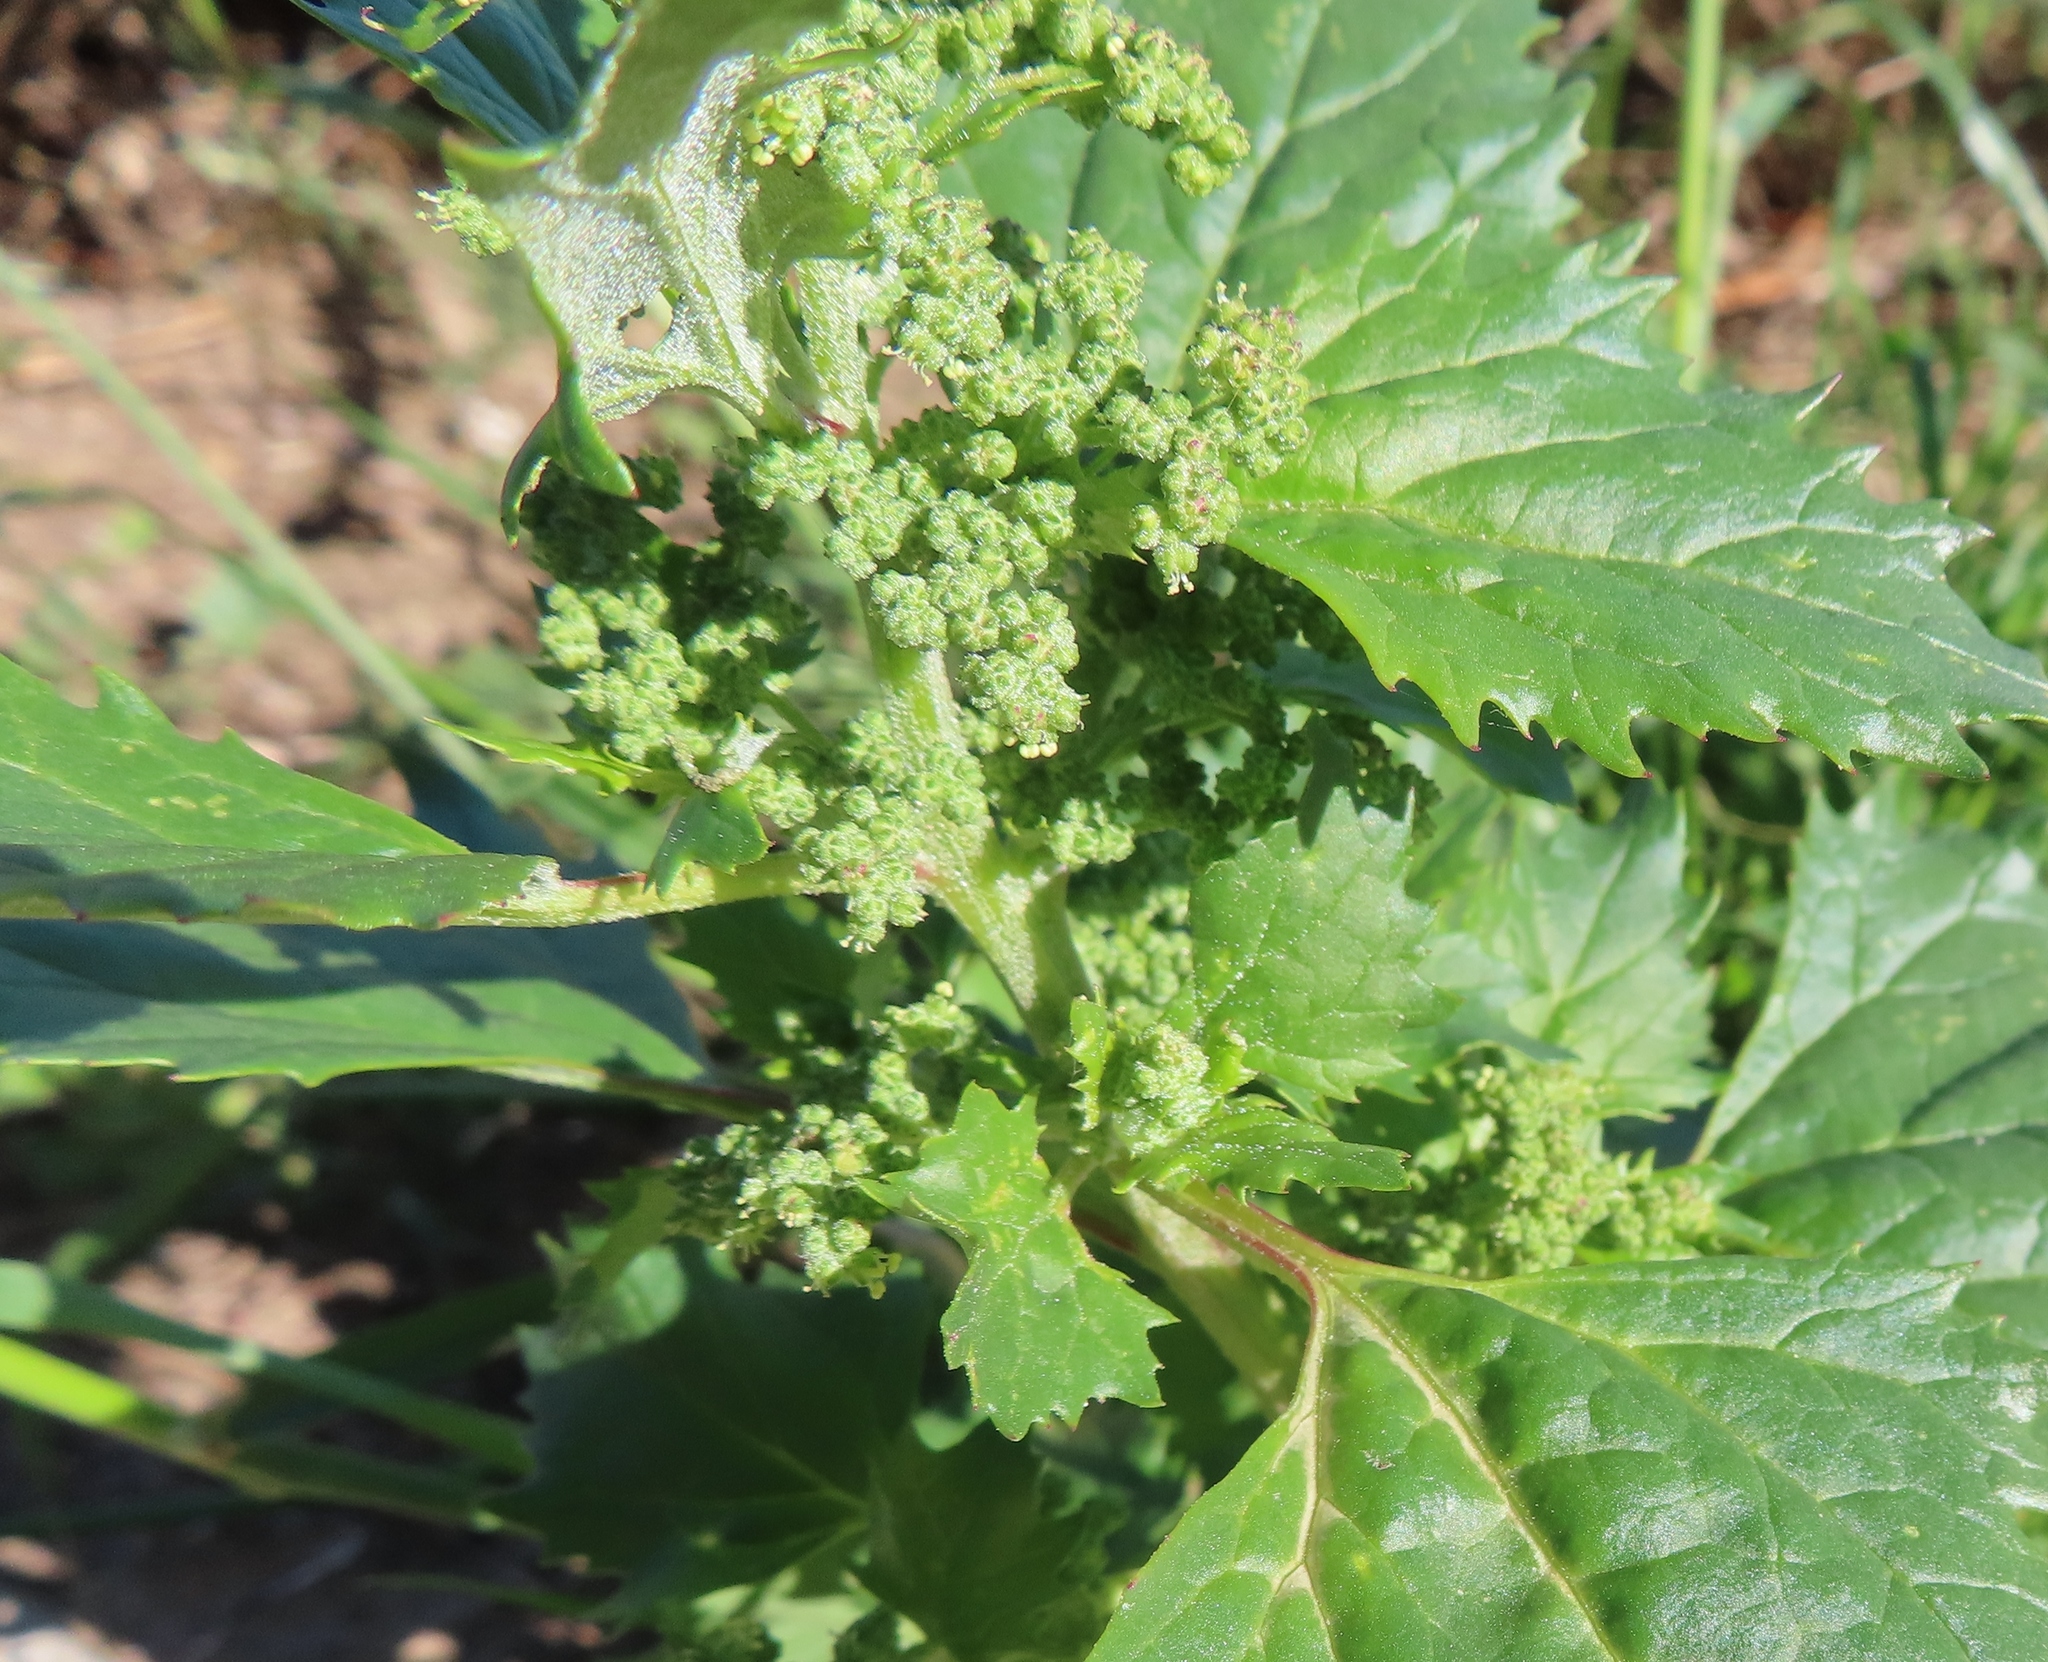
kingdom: Plantae
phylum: Tracheophyta
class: Magnoliopsida
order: Caryophyllales
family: Amaranthaceae
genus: Chenopodiastrum
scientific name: Chenopodiastrum murale
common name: Sowbane
